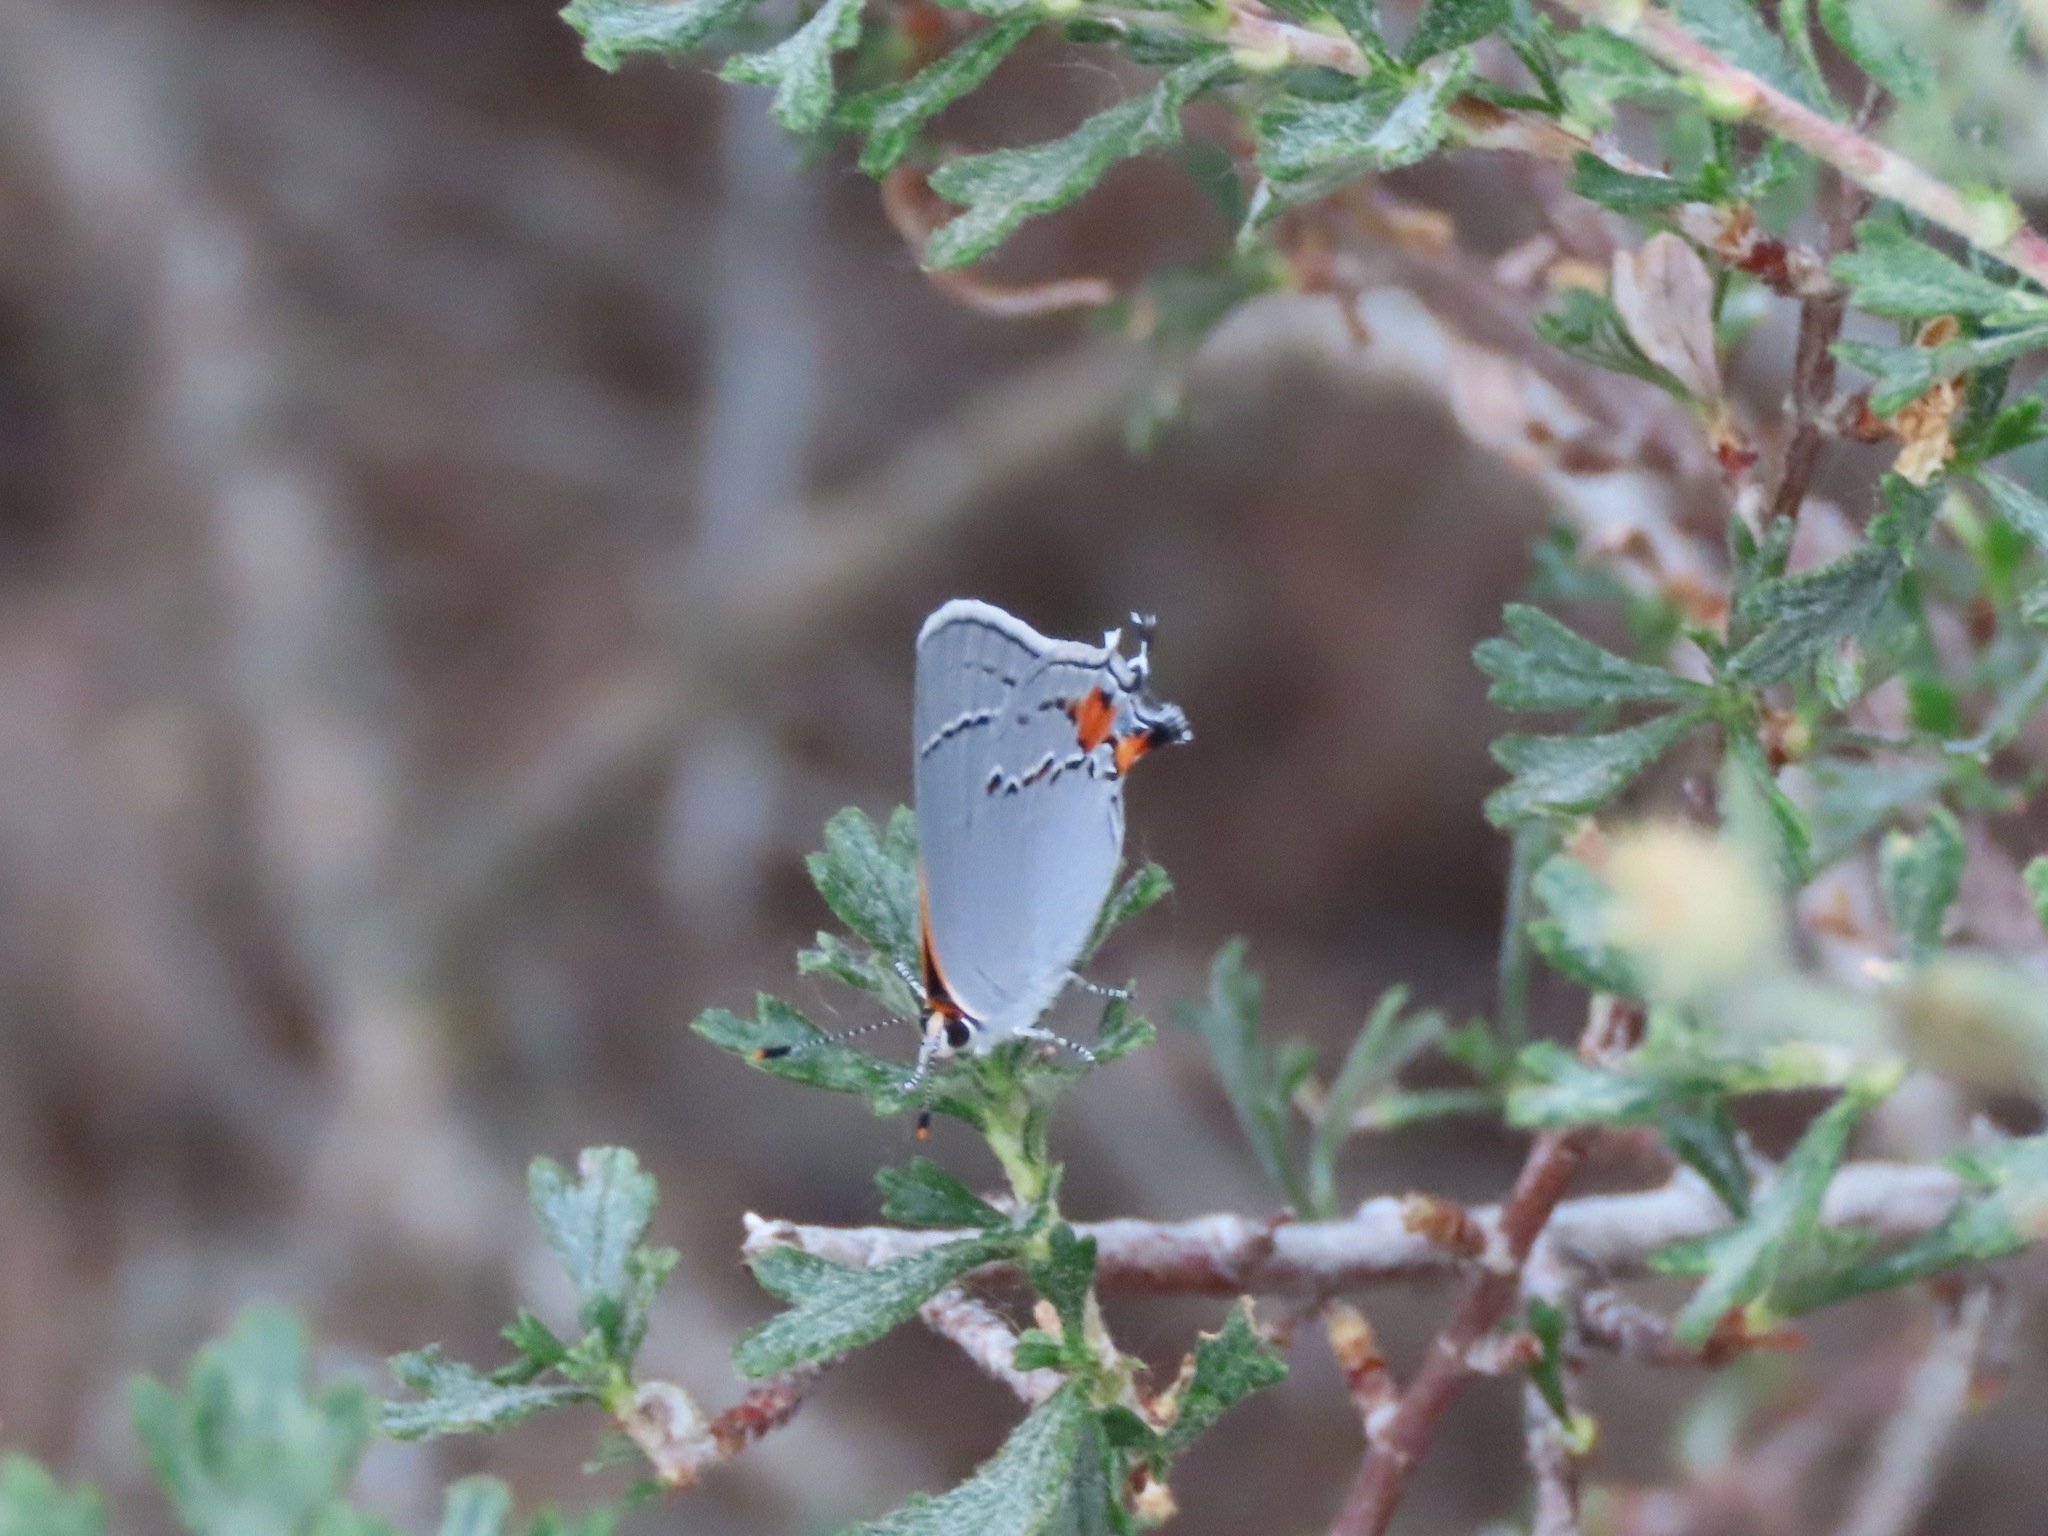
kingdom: Animalia
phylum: Arthropoda
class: Insecta
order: Lepidoptera
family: Lycaenidae
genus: Strymon
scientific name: Strymon melinus
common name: Gray hairstreak
